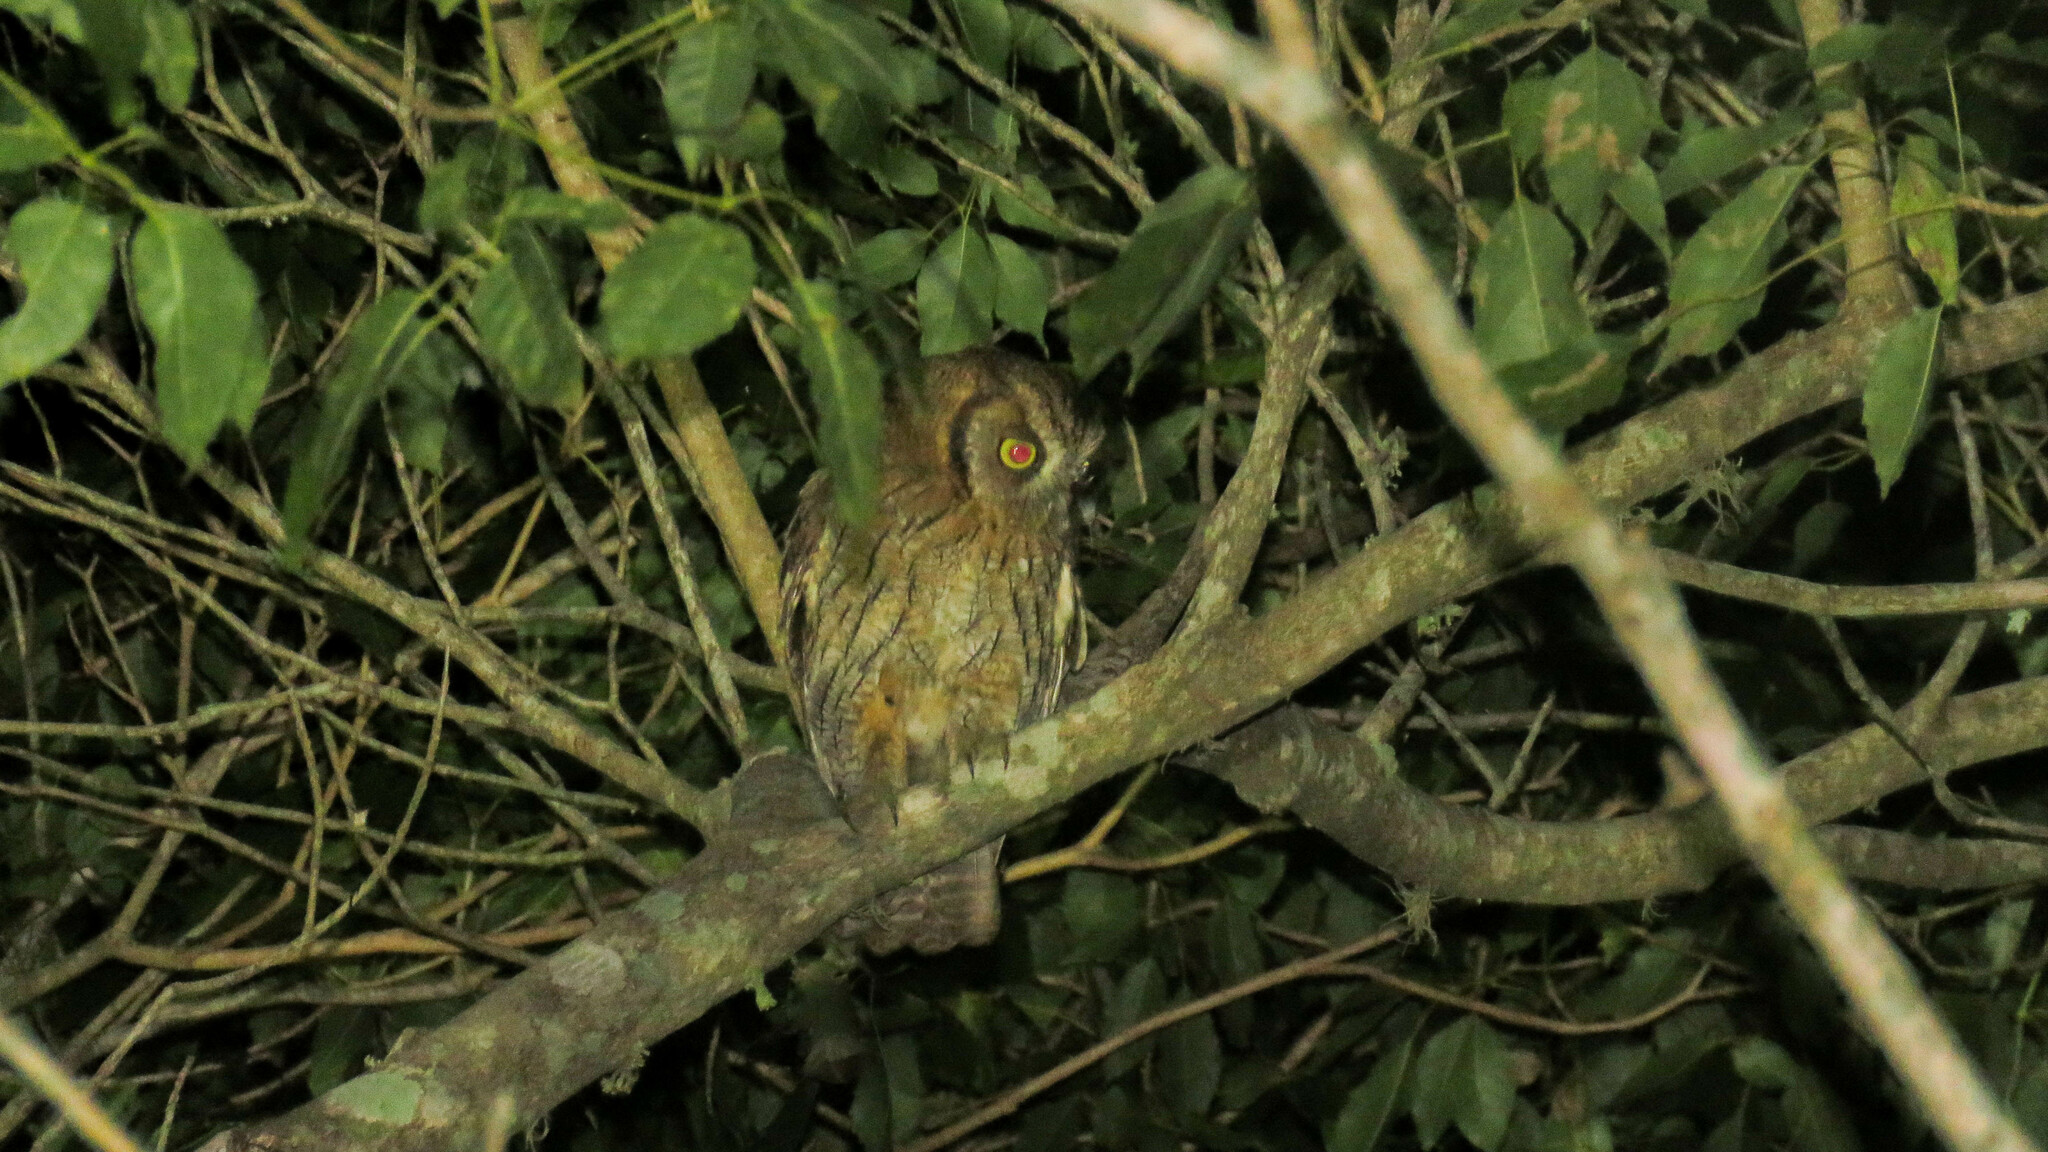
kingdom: Animalia
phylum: Chordata
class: Aves
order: Strigiformes
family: Strigidae
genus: Megascops
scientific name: Megascops choliba
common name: Tropical screech-owl
